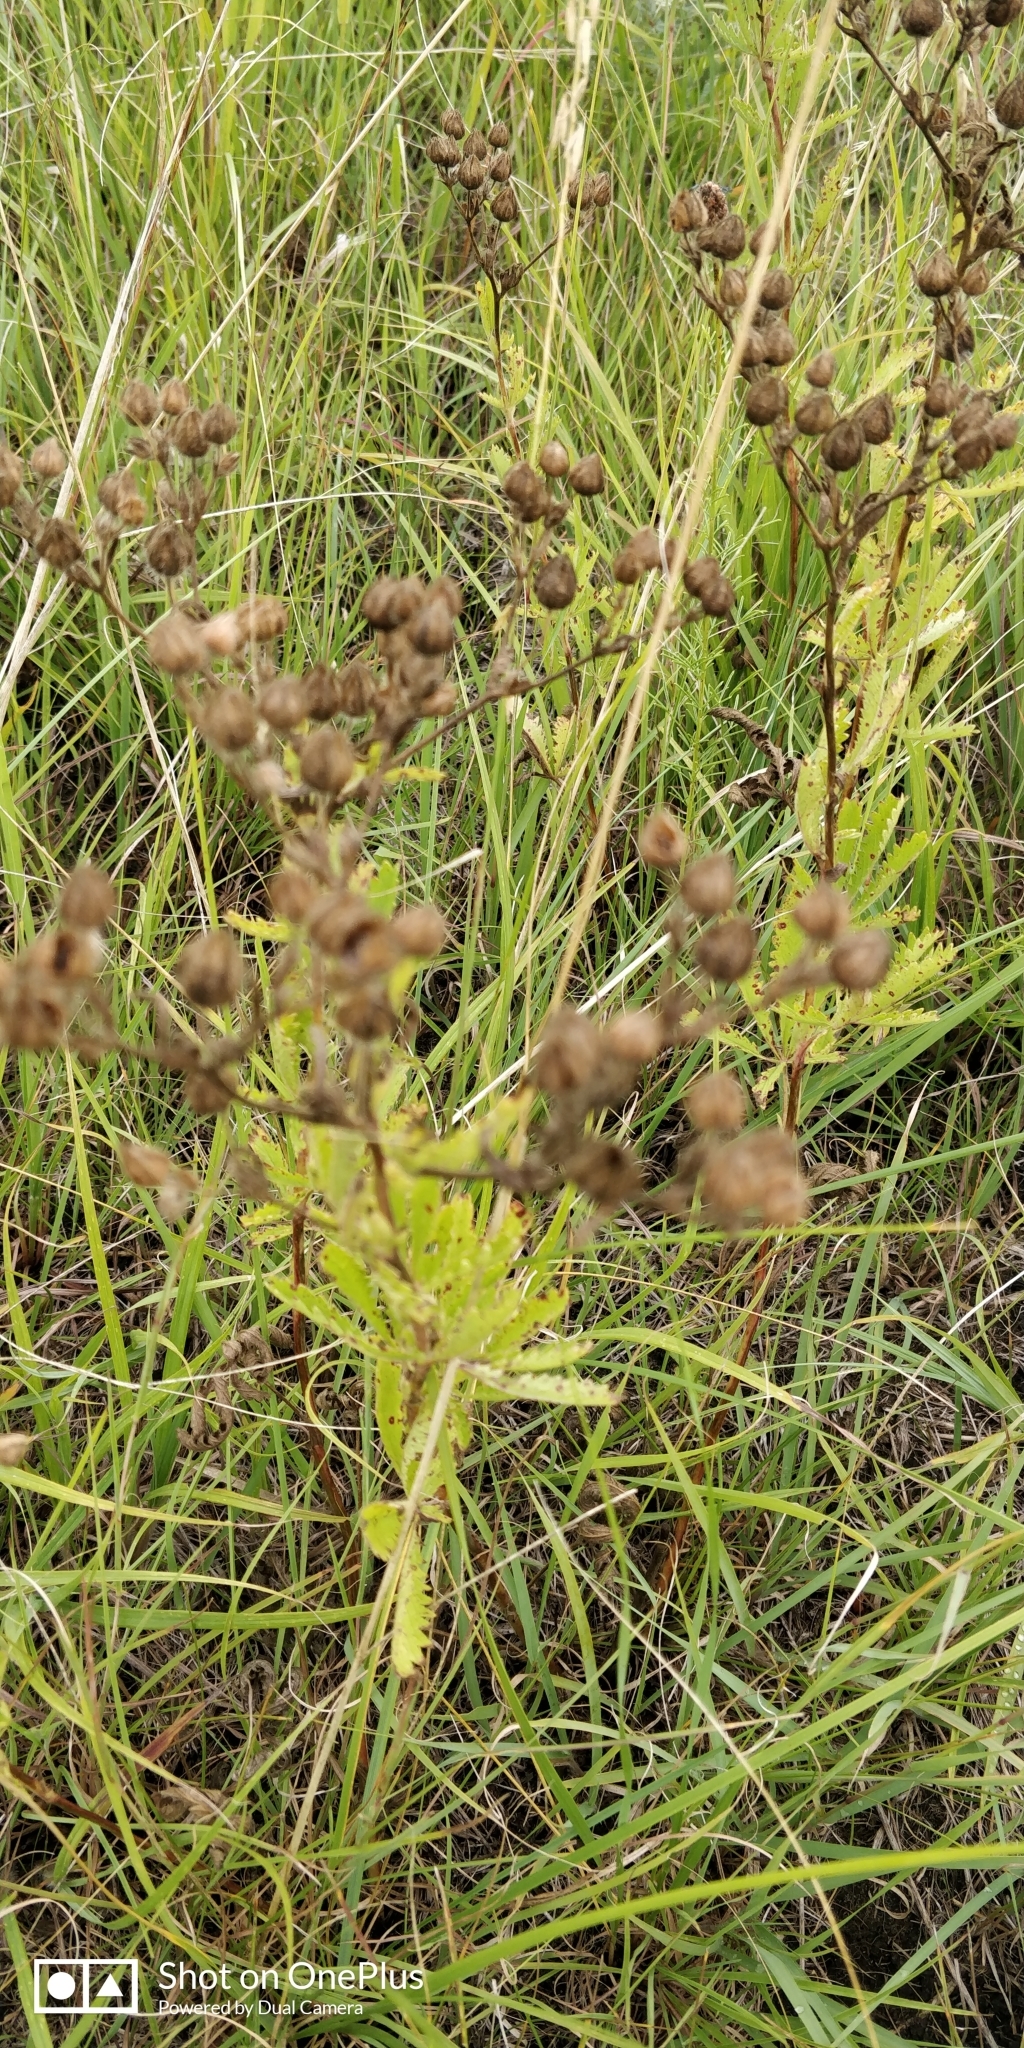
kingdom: Plantae
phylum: Tracheophyta
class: Magnoliopsida
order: Rosales
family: Rosaceae
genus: Potentilla
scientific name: Potentilla recta
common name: Sulphur cinquefoil
